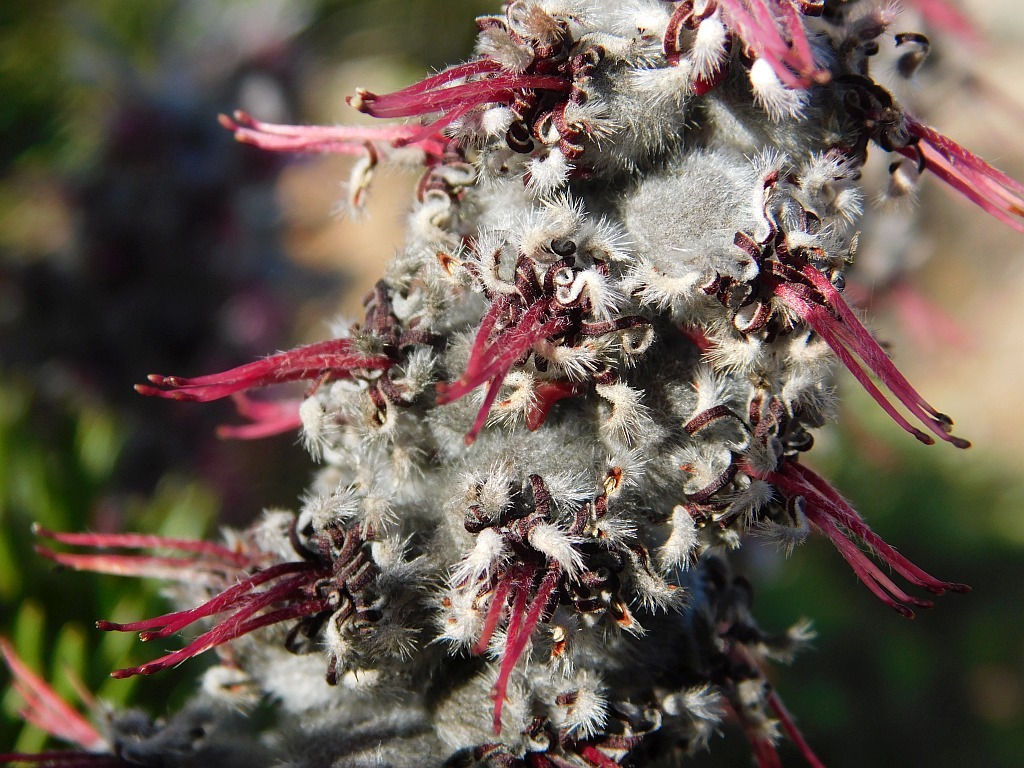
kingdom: Plantae
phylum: Tracheophyta
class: Magnoliopsida
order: Proteales
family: Proteaceae
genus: Paranomus
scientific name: Paranomus dispersus
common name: Long-head sceptre
